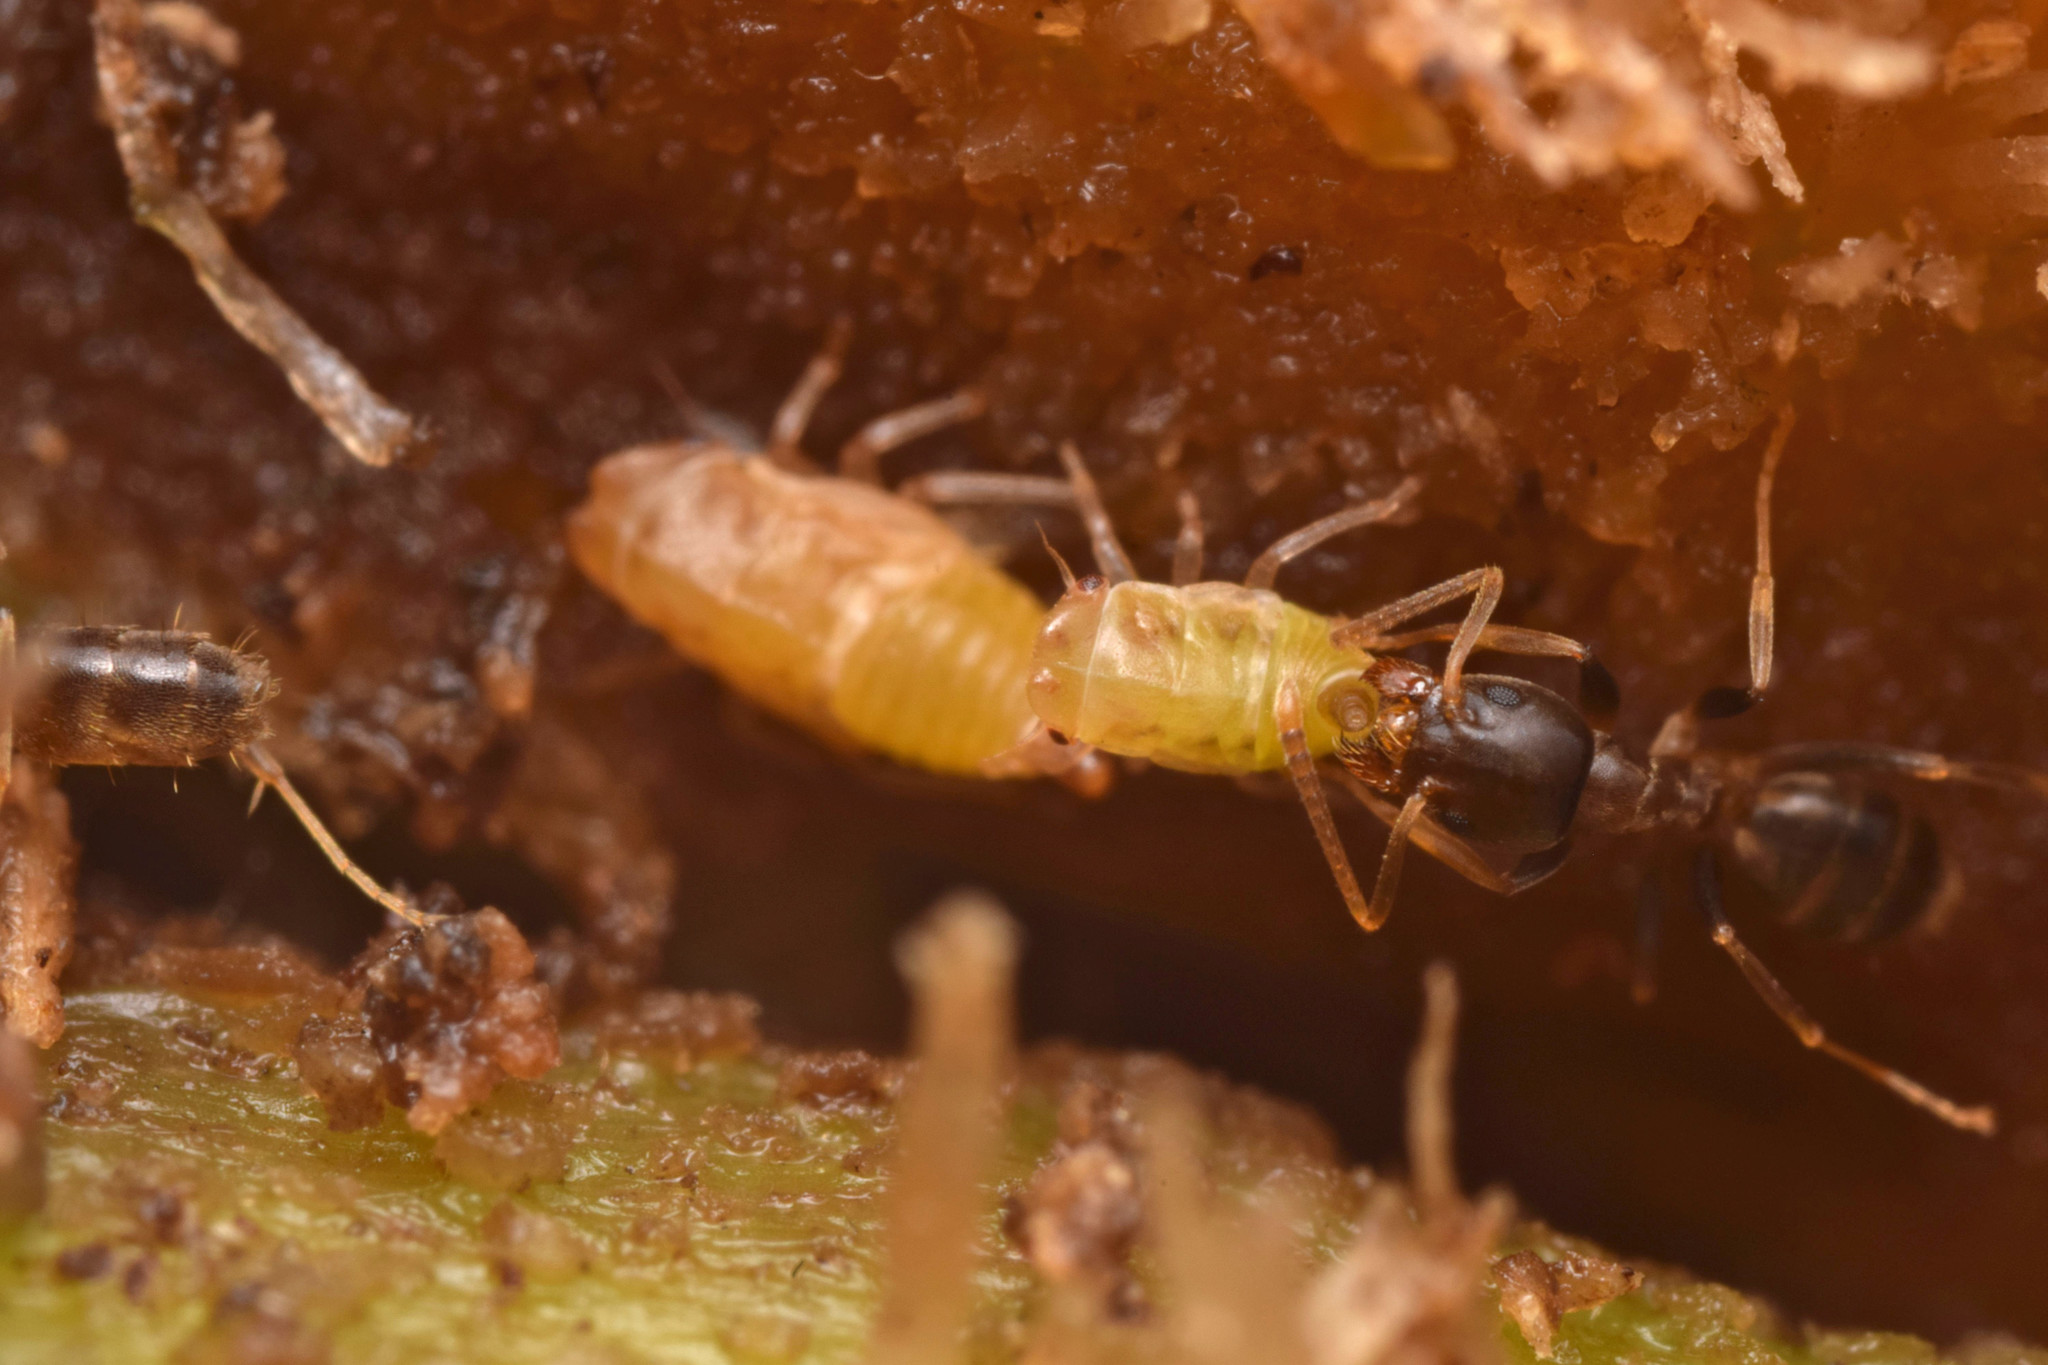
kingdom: Animalia
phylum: Arthropoda
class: Insecta
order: Hymenoptera
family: Formicidae
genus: Linepithema
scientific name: Linepithema piliferum
